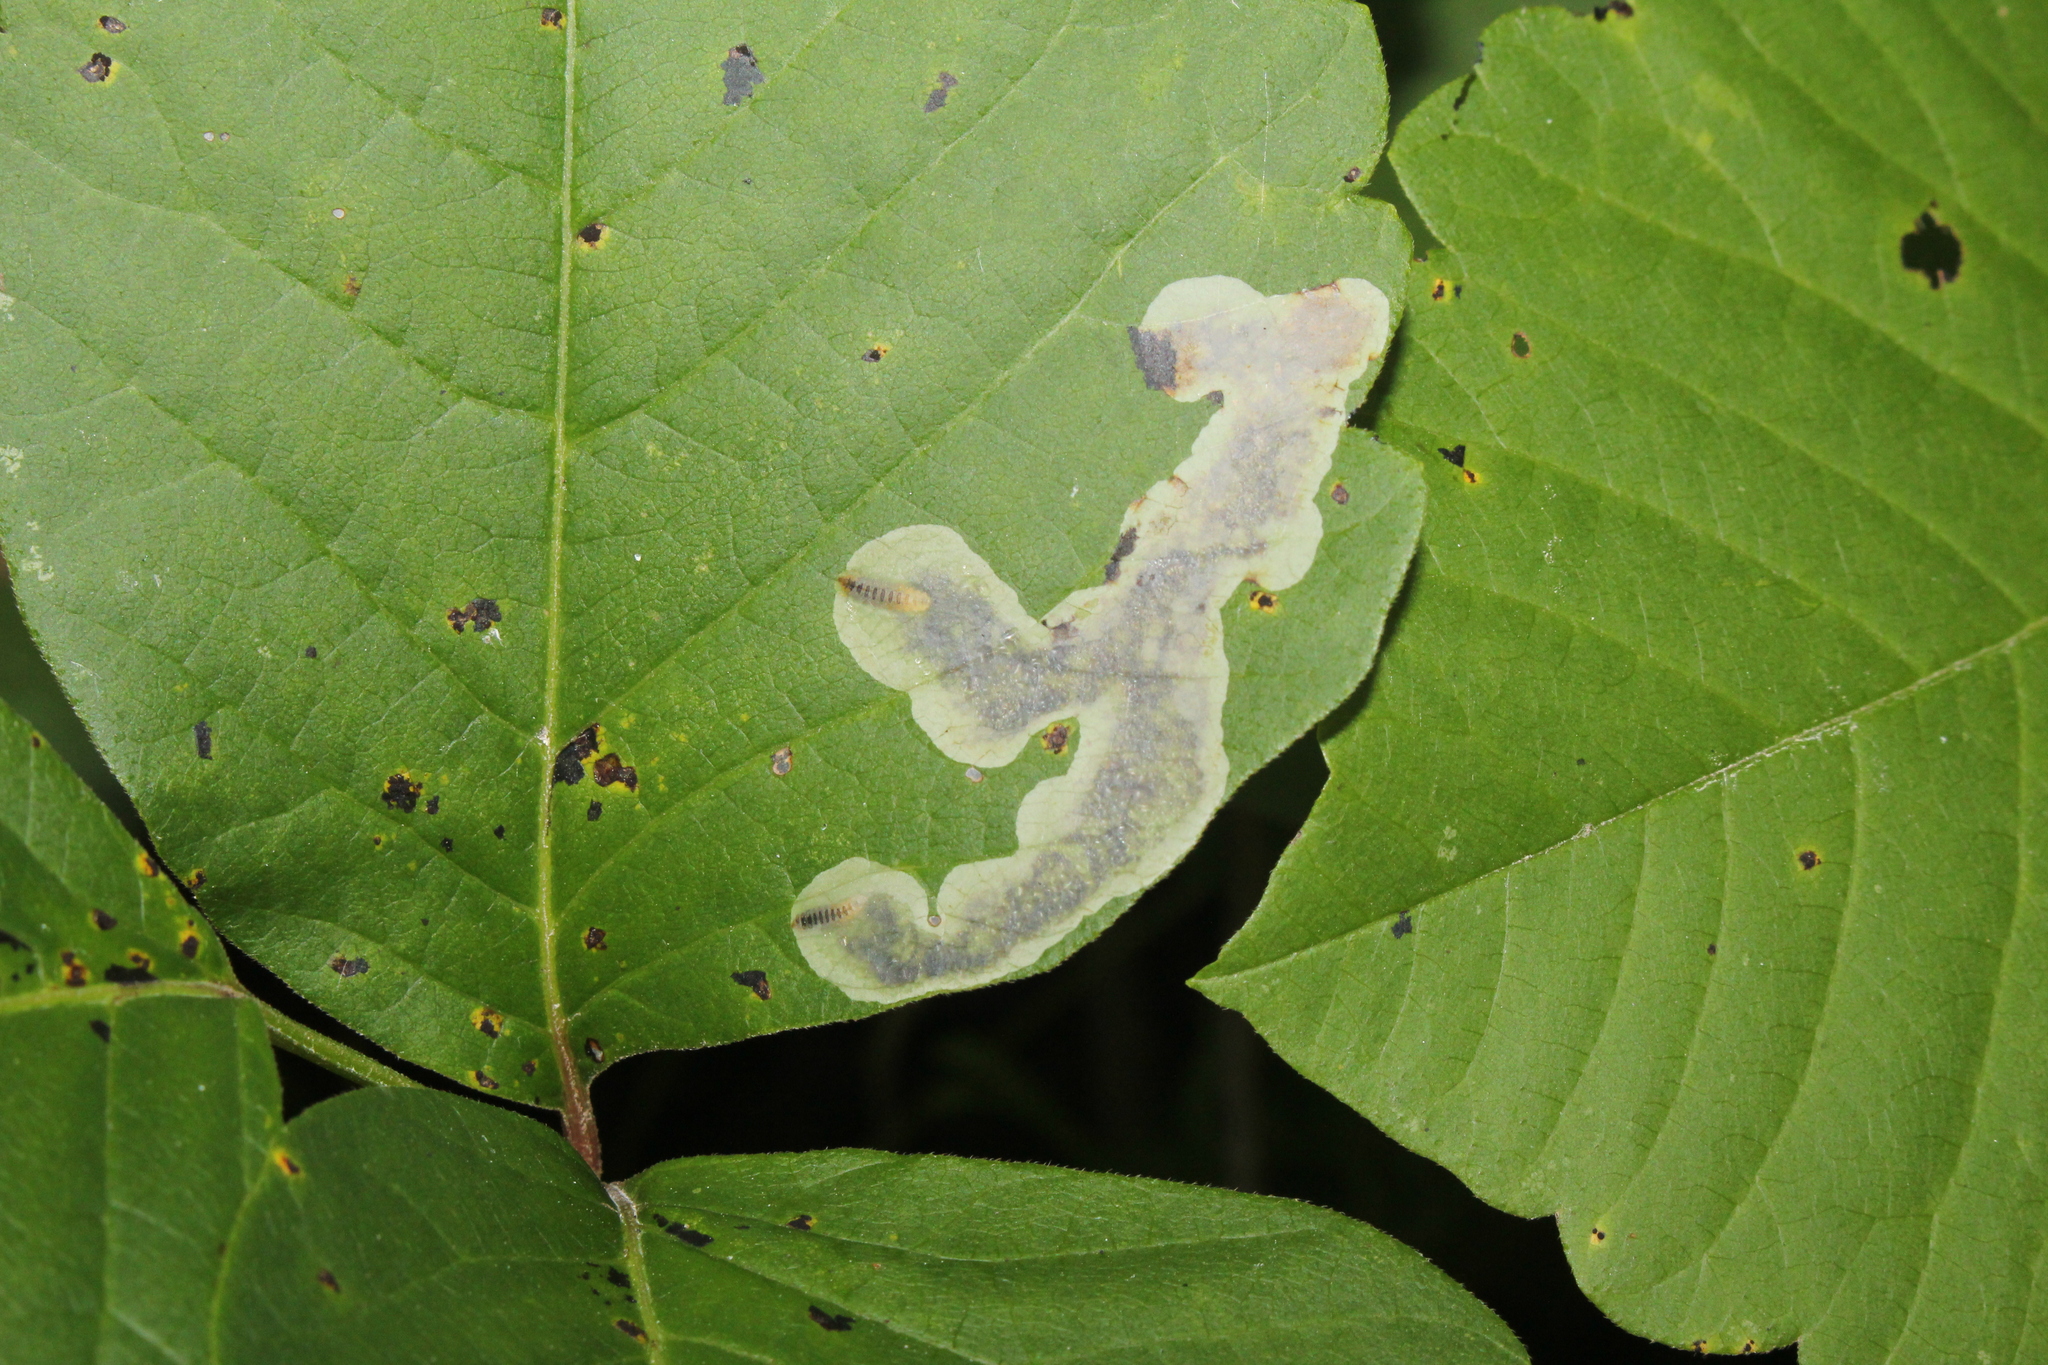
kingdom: Animalia
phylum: Arthropoda
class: Insecta
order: Lepidoptera
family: Gracillariidae
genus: Cameraria
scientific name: Cameraria guttifinitella
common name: Poison ivy leaf-miner moth
